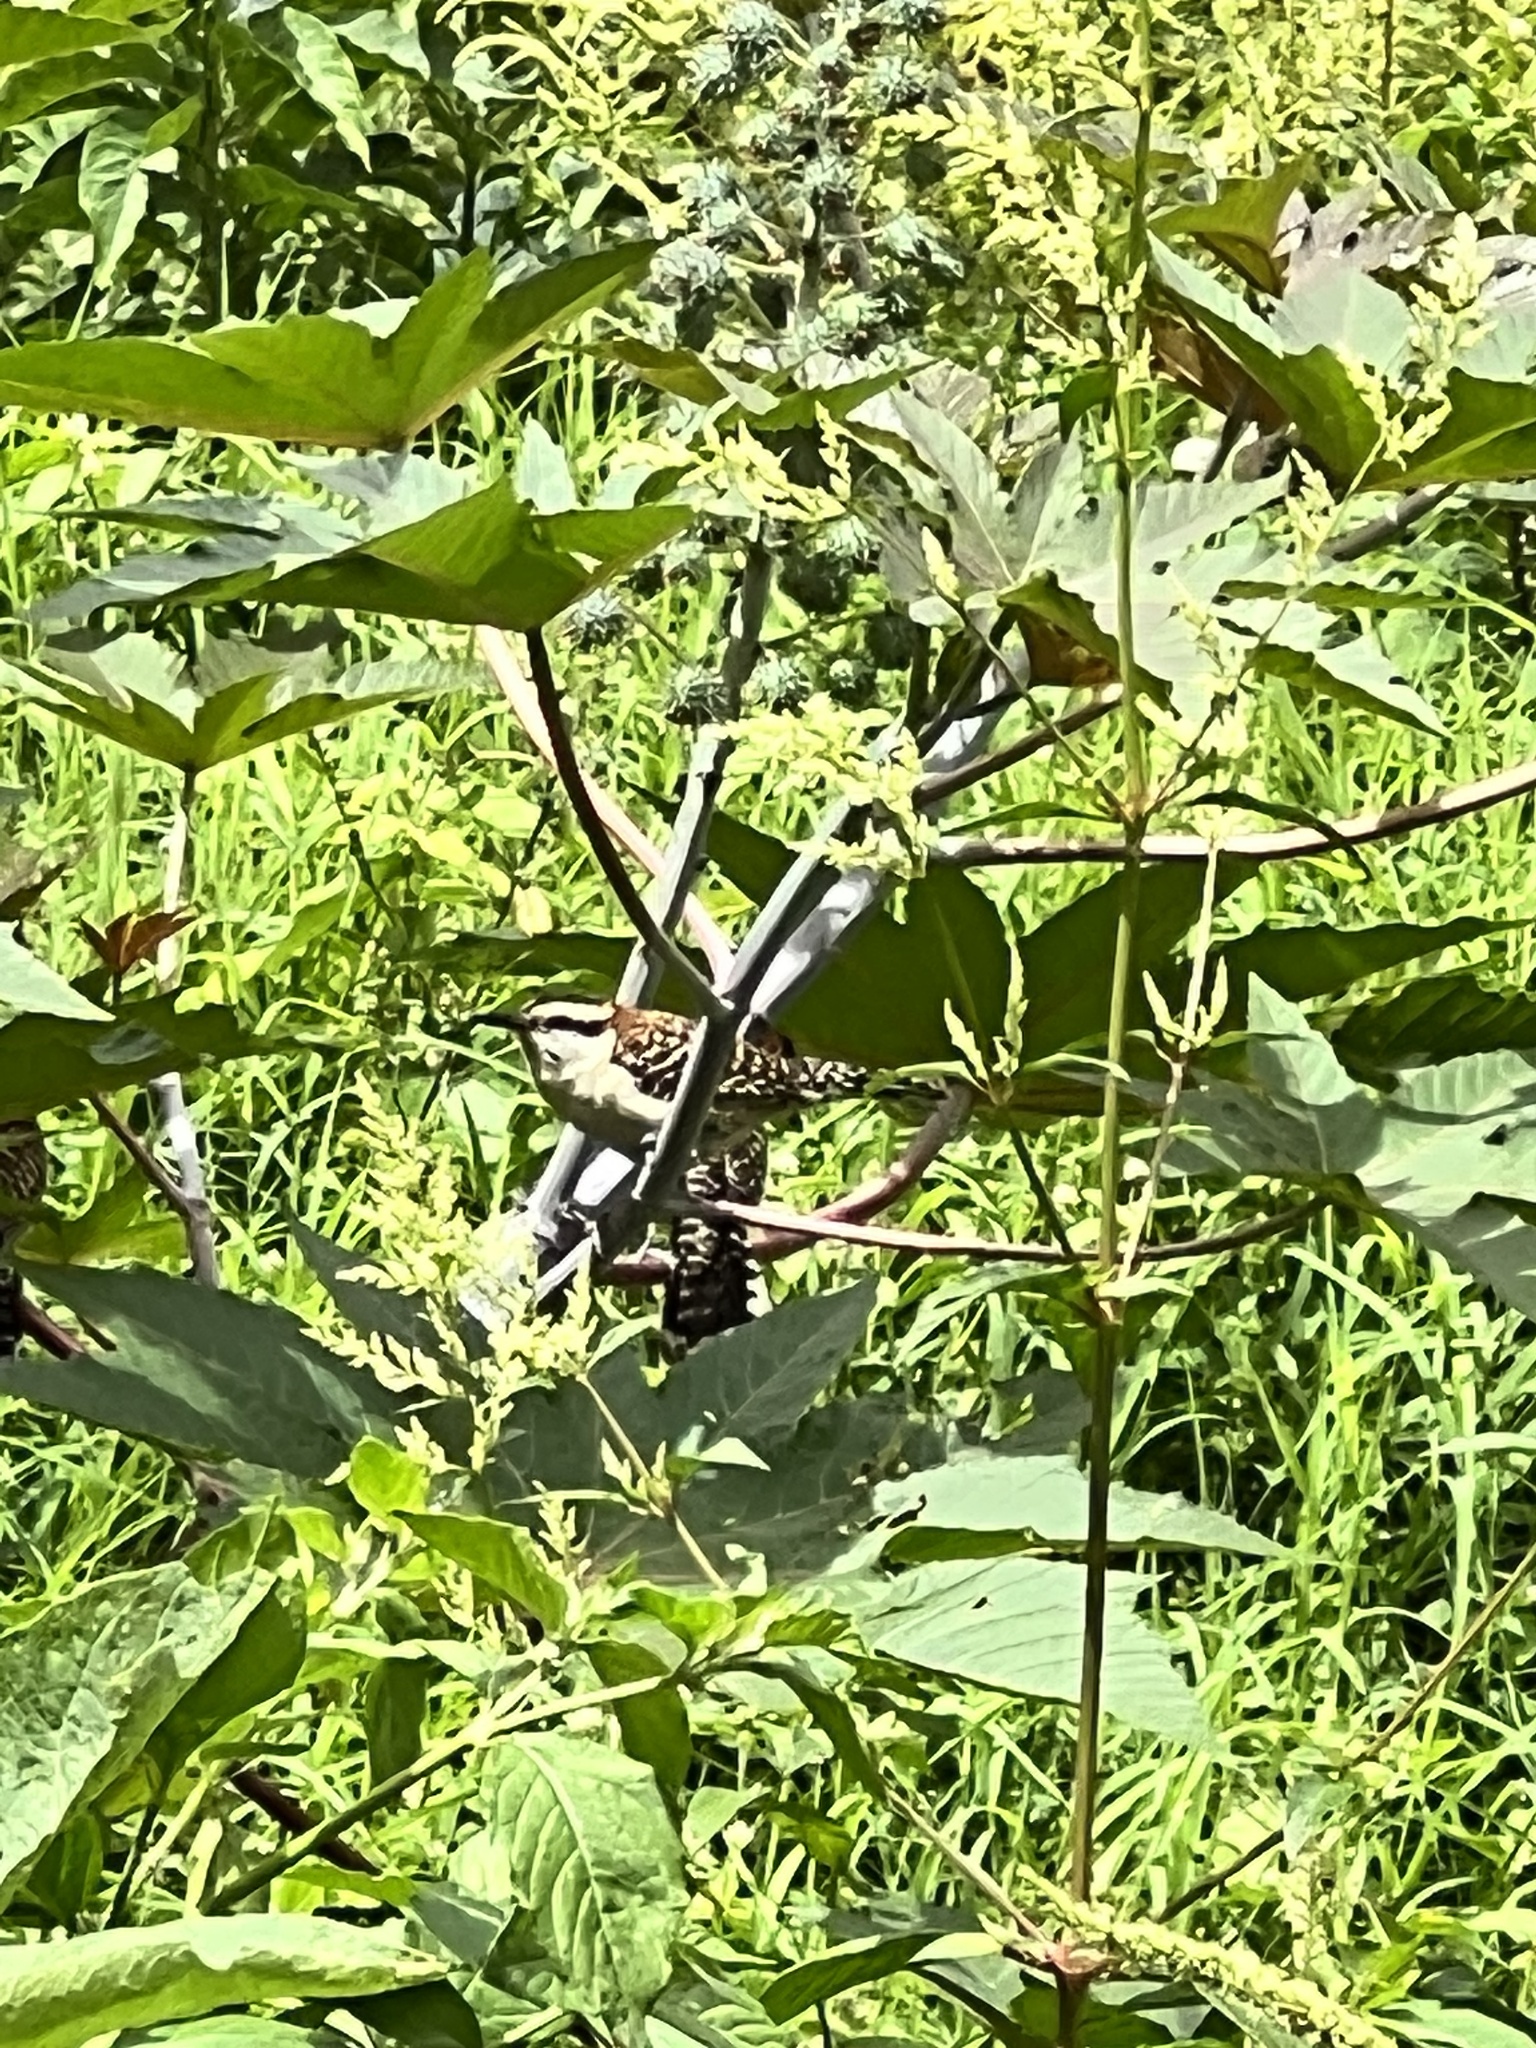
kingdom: Animalia
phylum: Chordata
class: Aves
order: Passeriformes
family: Troglodytidae
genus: Campylorhynchus
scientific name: Campylorhynchus rufinucha
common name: Rufous-naped wren
